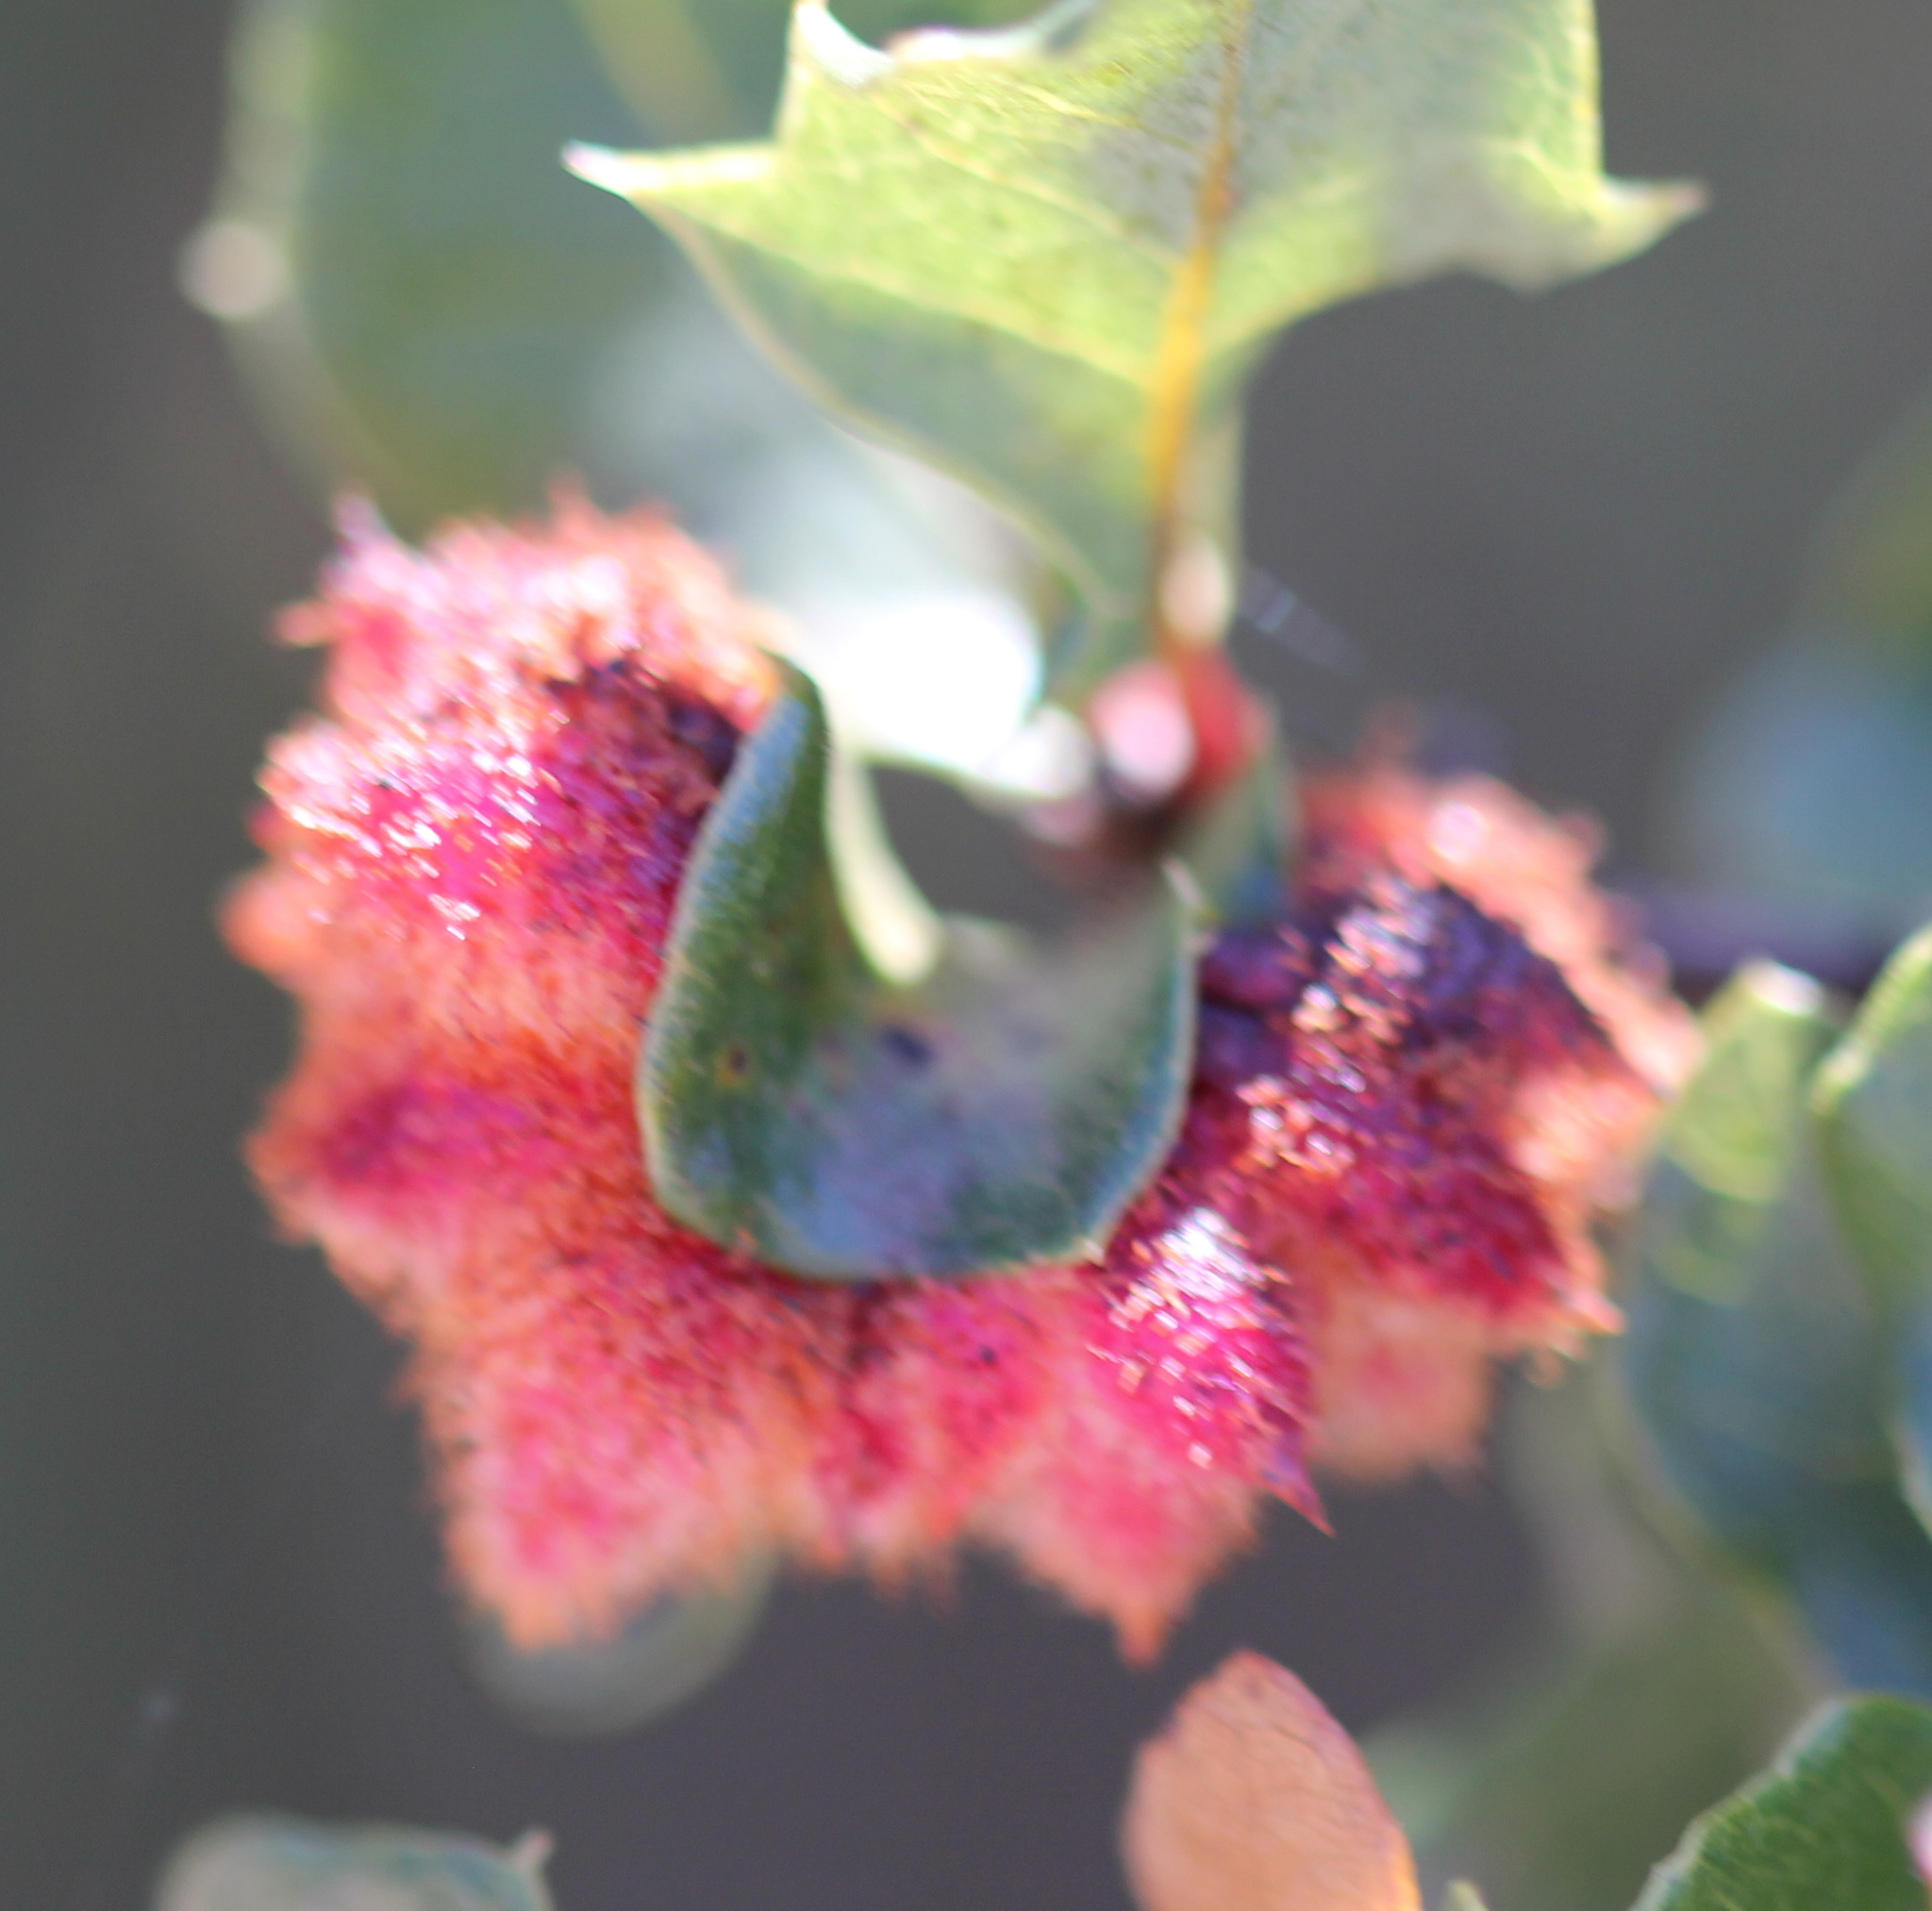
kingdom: Animalia
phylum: Arthropoda
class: Insecta
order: Hymenoptera
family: Cynipidae
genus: Andricus
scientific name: Andricus
